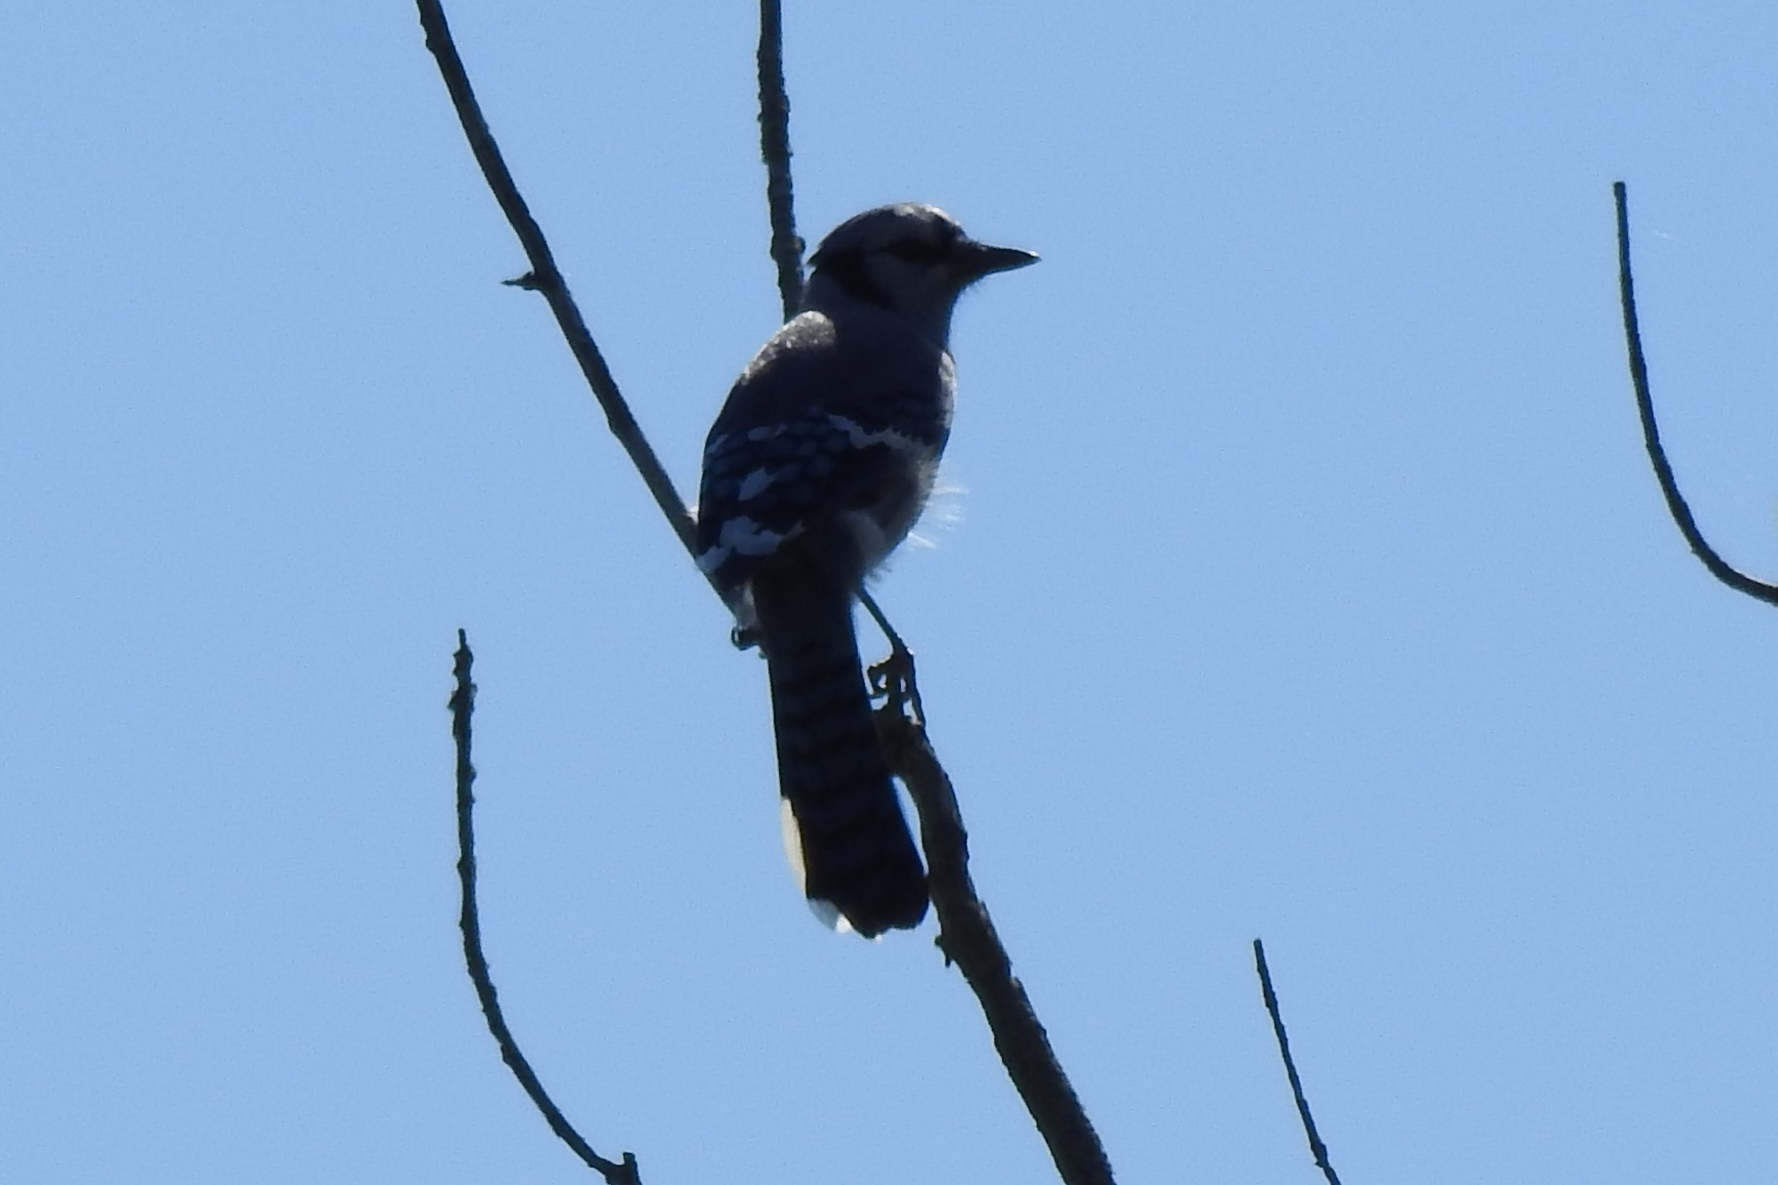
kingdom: Animalia
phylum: Chordata
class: Aves
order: Passeriformes
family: Corvidae
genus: Cyanocitta
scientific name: Cyanocitta cristata
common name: Blue jay
